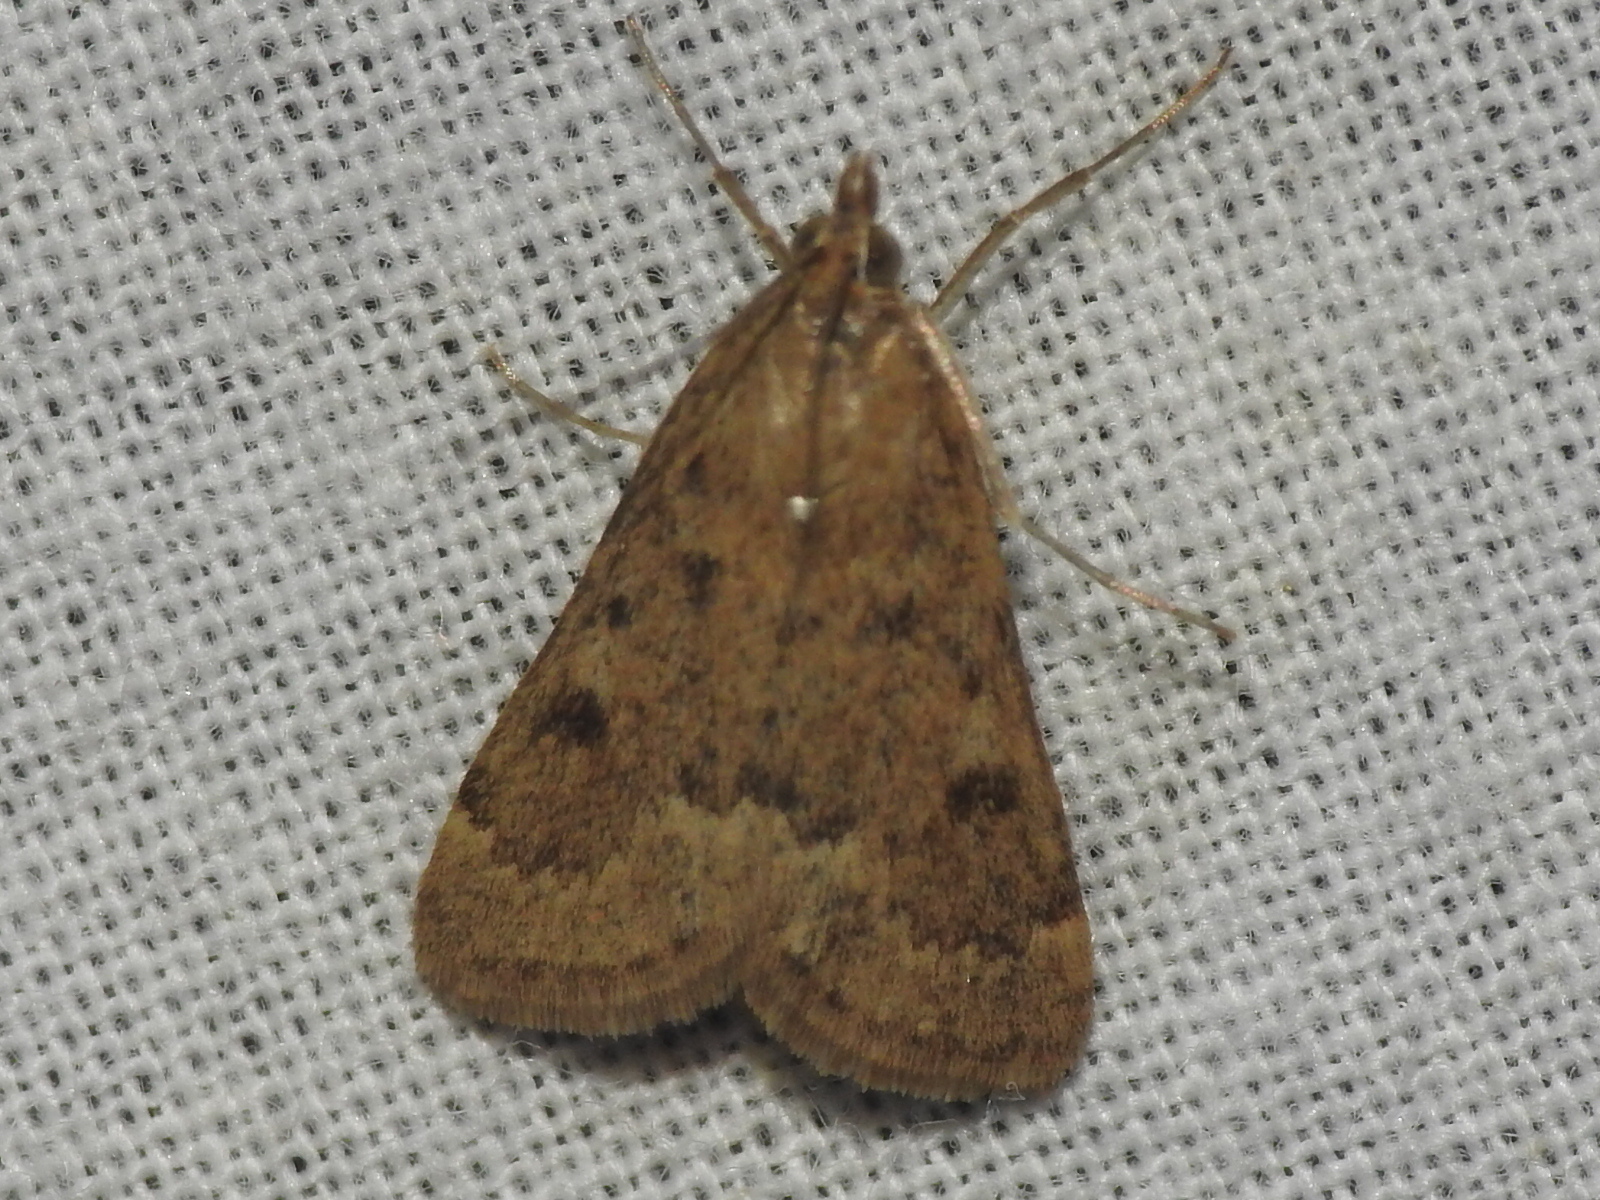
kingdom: Animalia
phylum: Arthropoda
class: Insecta
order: Lepidoptera
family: Crambidae
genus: Achyra
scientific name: Achyra rantalis
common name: Garden webworm
